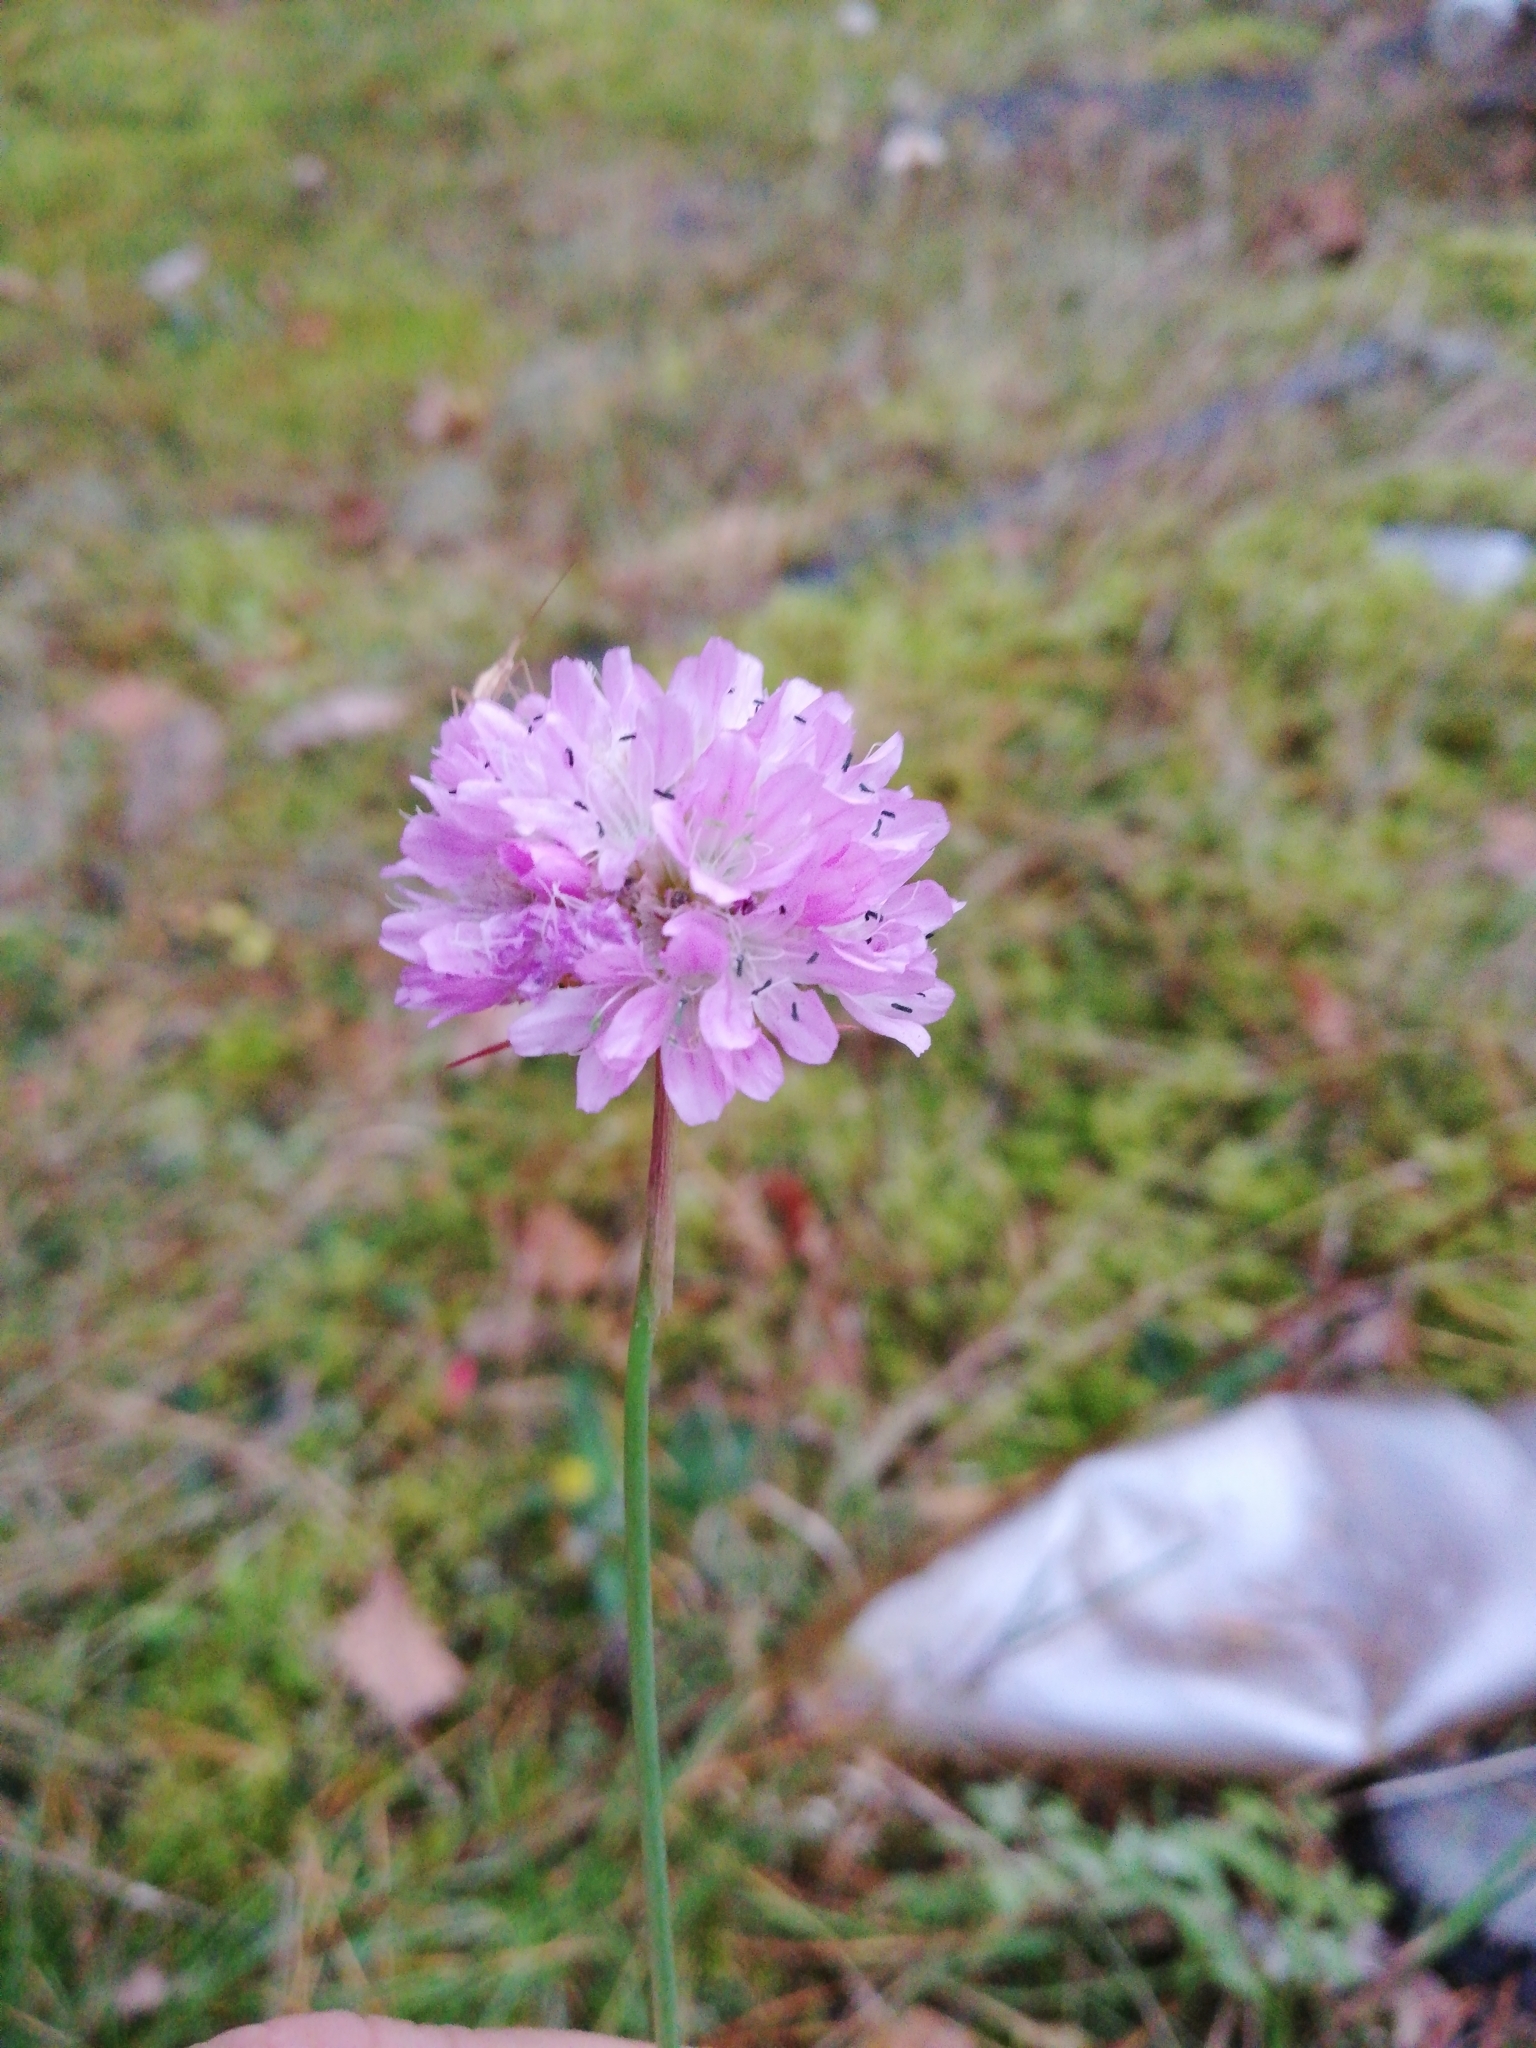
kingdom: Plantae
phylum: Tracheophyta
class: Magnoliopsida
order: Caryophyllales
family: Plumbaginaceae
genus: Armeria
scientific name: Armeria maritima
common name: Thrift
